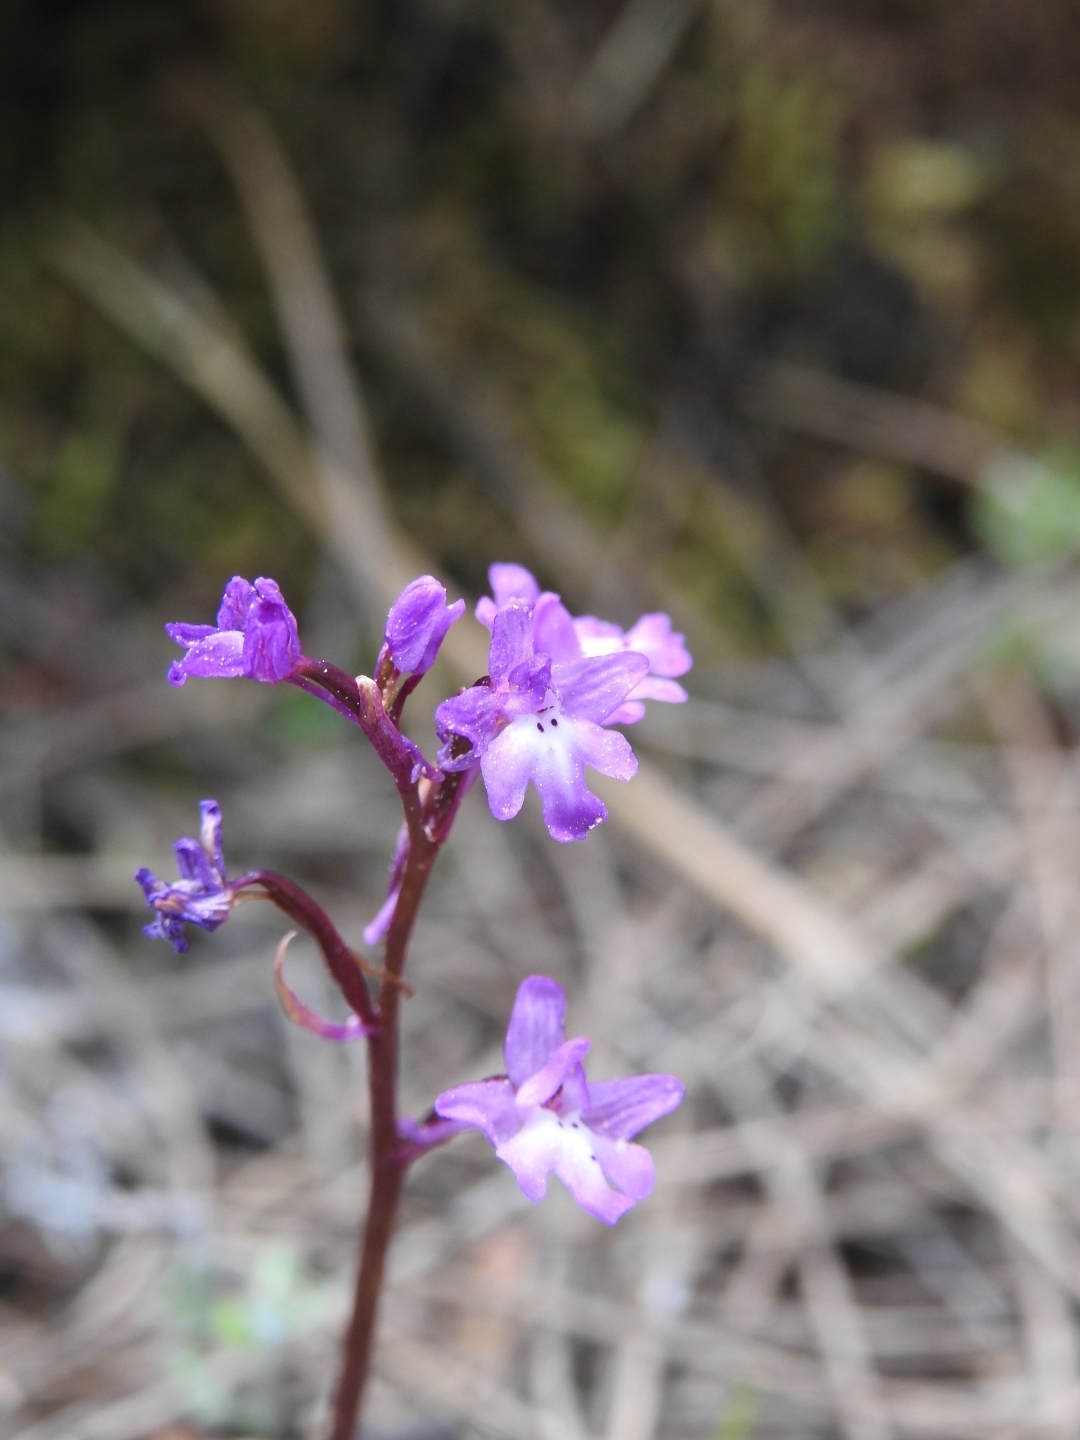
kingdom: Plantae
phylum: Tracheophyta
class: Liliopsida
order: Asparagales
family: Orchidaceae
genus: Orchis
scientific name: Orchis quadripunctata
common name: Four-spotted orchid
